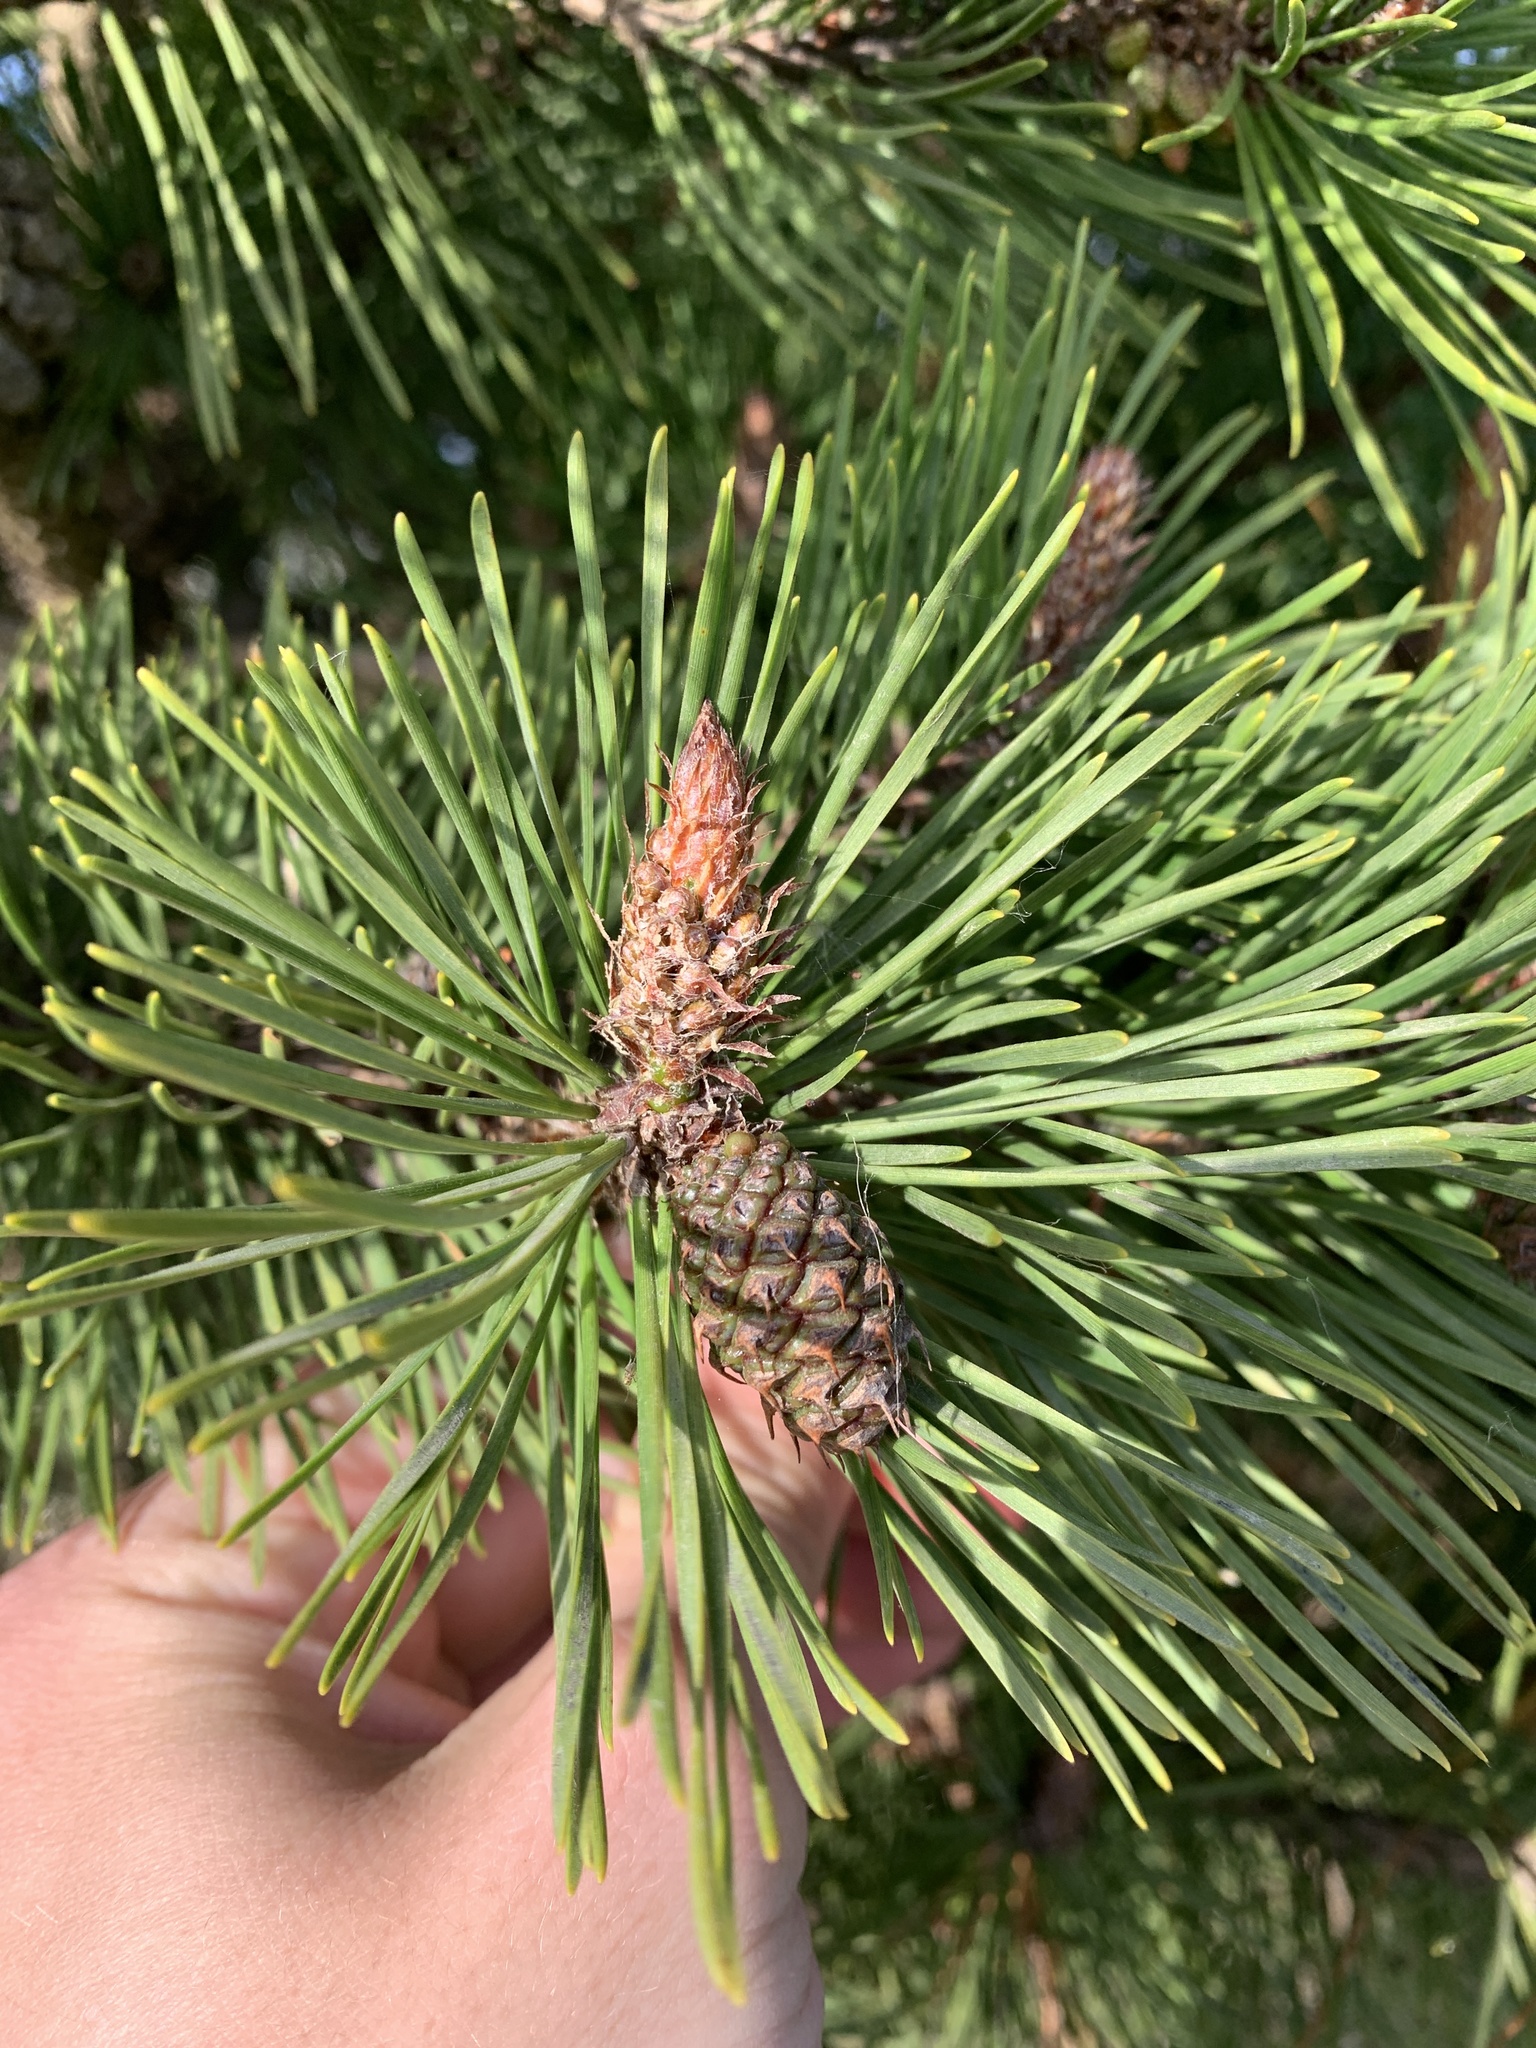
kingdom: Plantae
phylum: Tracheophyta
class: Pinopsida
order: Pinales
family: Pinaceae
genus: Pinus
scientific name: Pinus contorta
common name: Lodgepole pine
